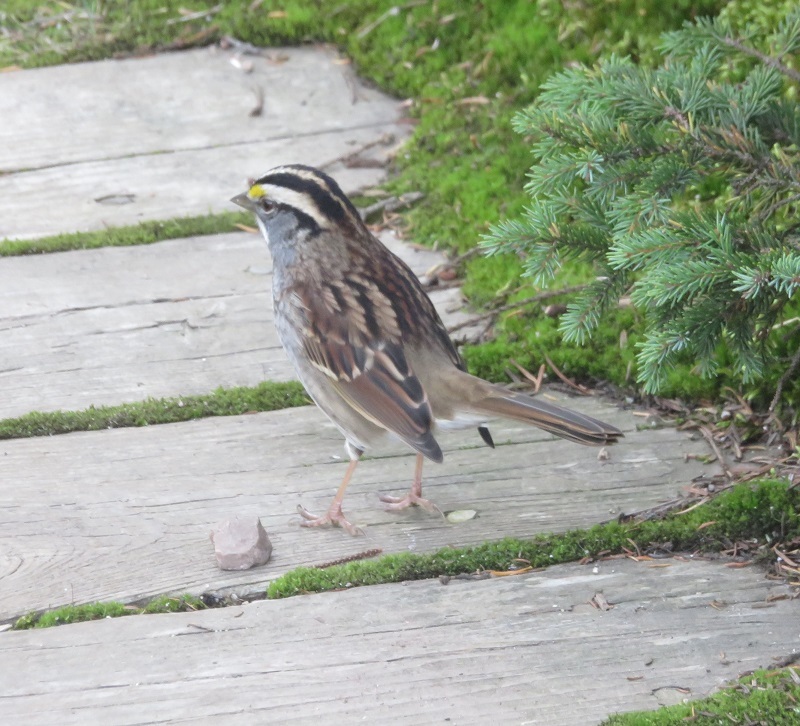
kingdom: Animalia
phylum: Chordata
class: Aves
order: Passeriformes
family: Passerellidae
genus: Zonotrichia
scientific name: Zonotrichia albicollis
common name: White-throated sparrow
